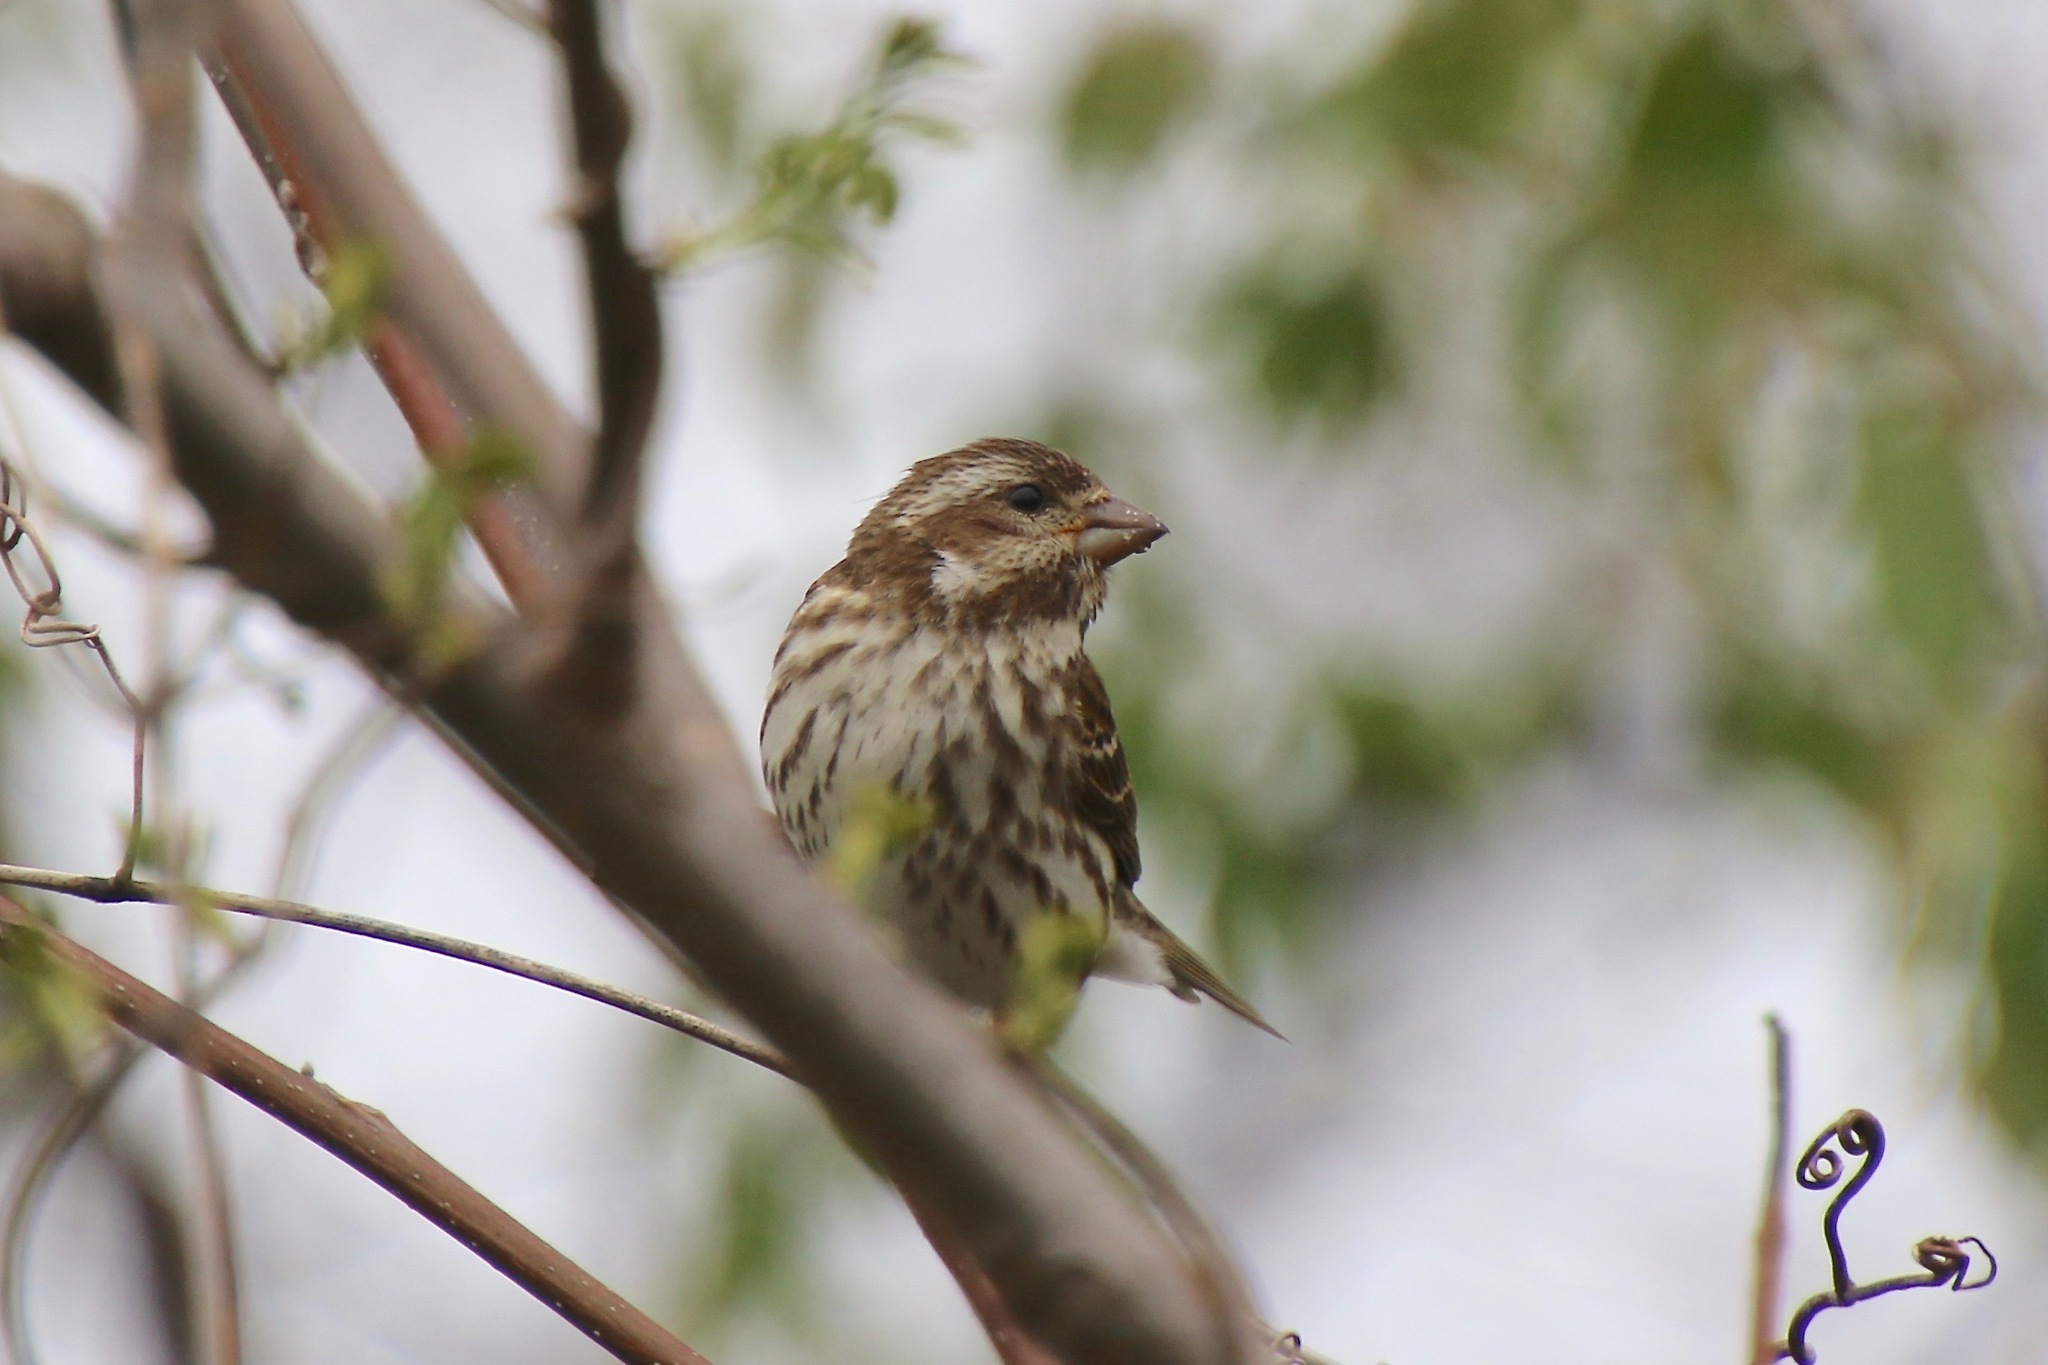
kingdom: Animalia
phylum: Chordata
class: Aves
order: Passeriformes
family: Fringillidae
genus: Haemorhous
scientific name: Haemorhous purpureus
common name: Purple finch
